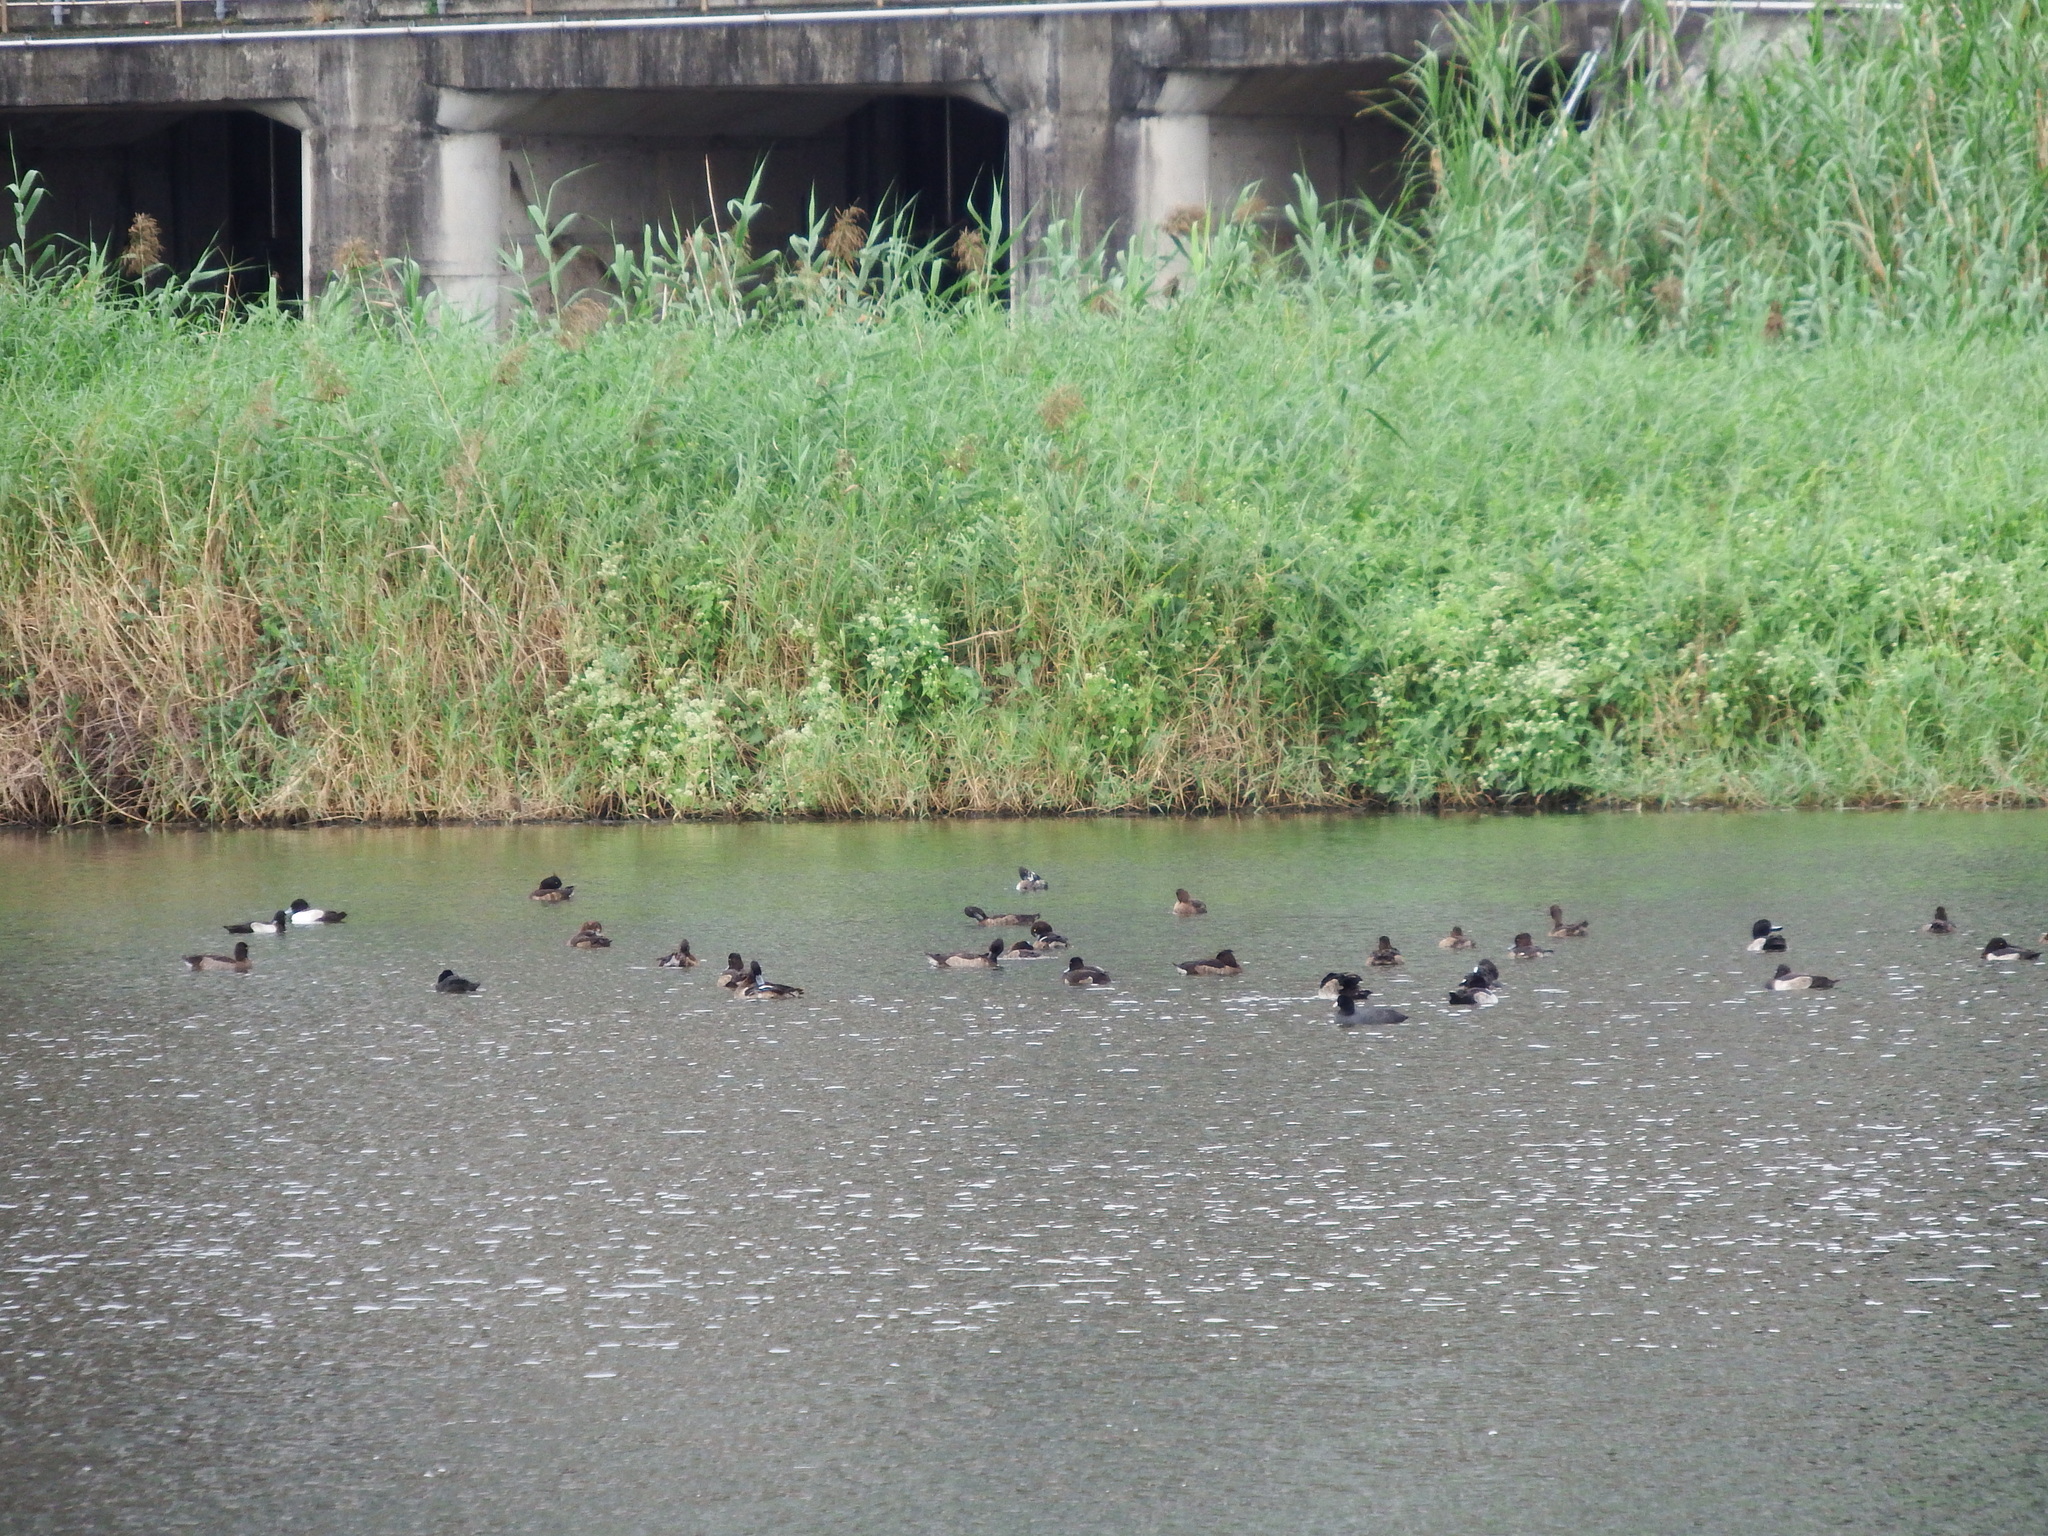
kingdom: Animalia
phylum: Chordata
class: Aves
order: Anseriformes
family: Anatidae
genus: Aythya
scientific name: Aythya fuligula
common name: Tufted duck
